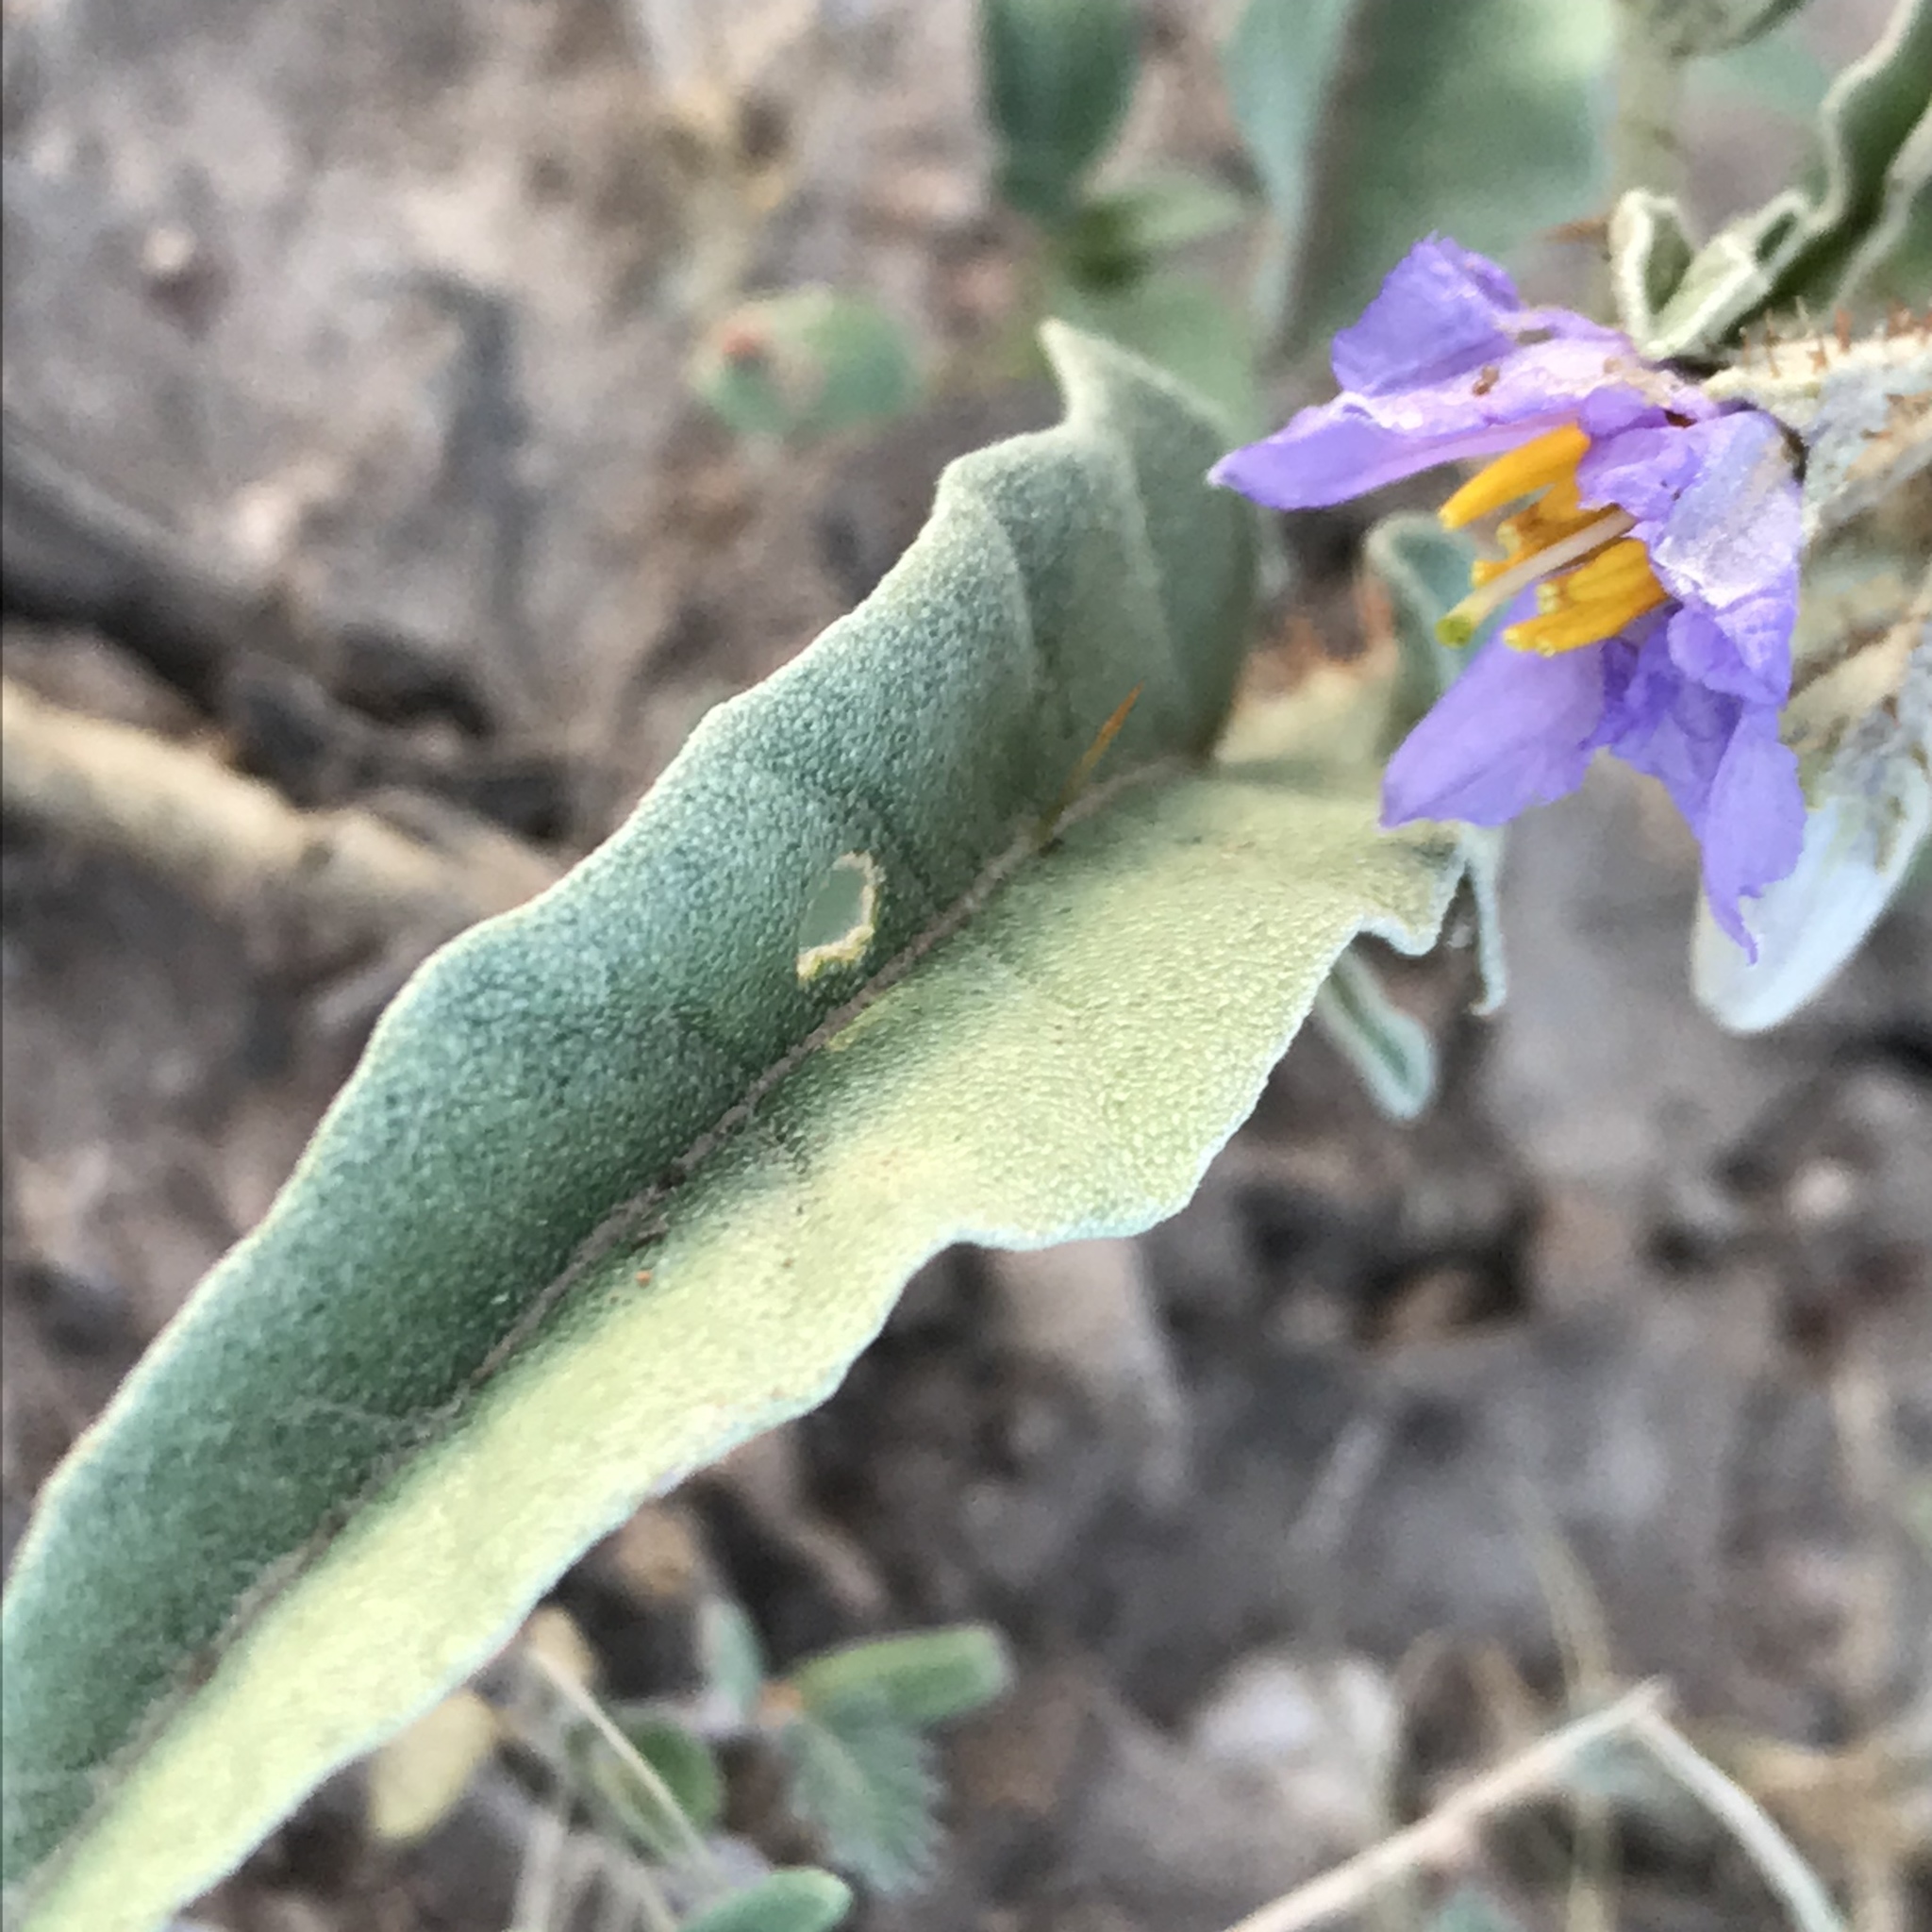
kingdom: Plantae
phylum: Tracheophyta
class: Magnoliopsida
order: Solanales
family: Solanaceae
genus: Solanum
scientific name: Solanum elaeagnifolium
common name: Silverleaf nightshade
